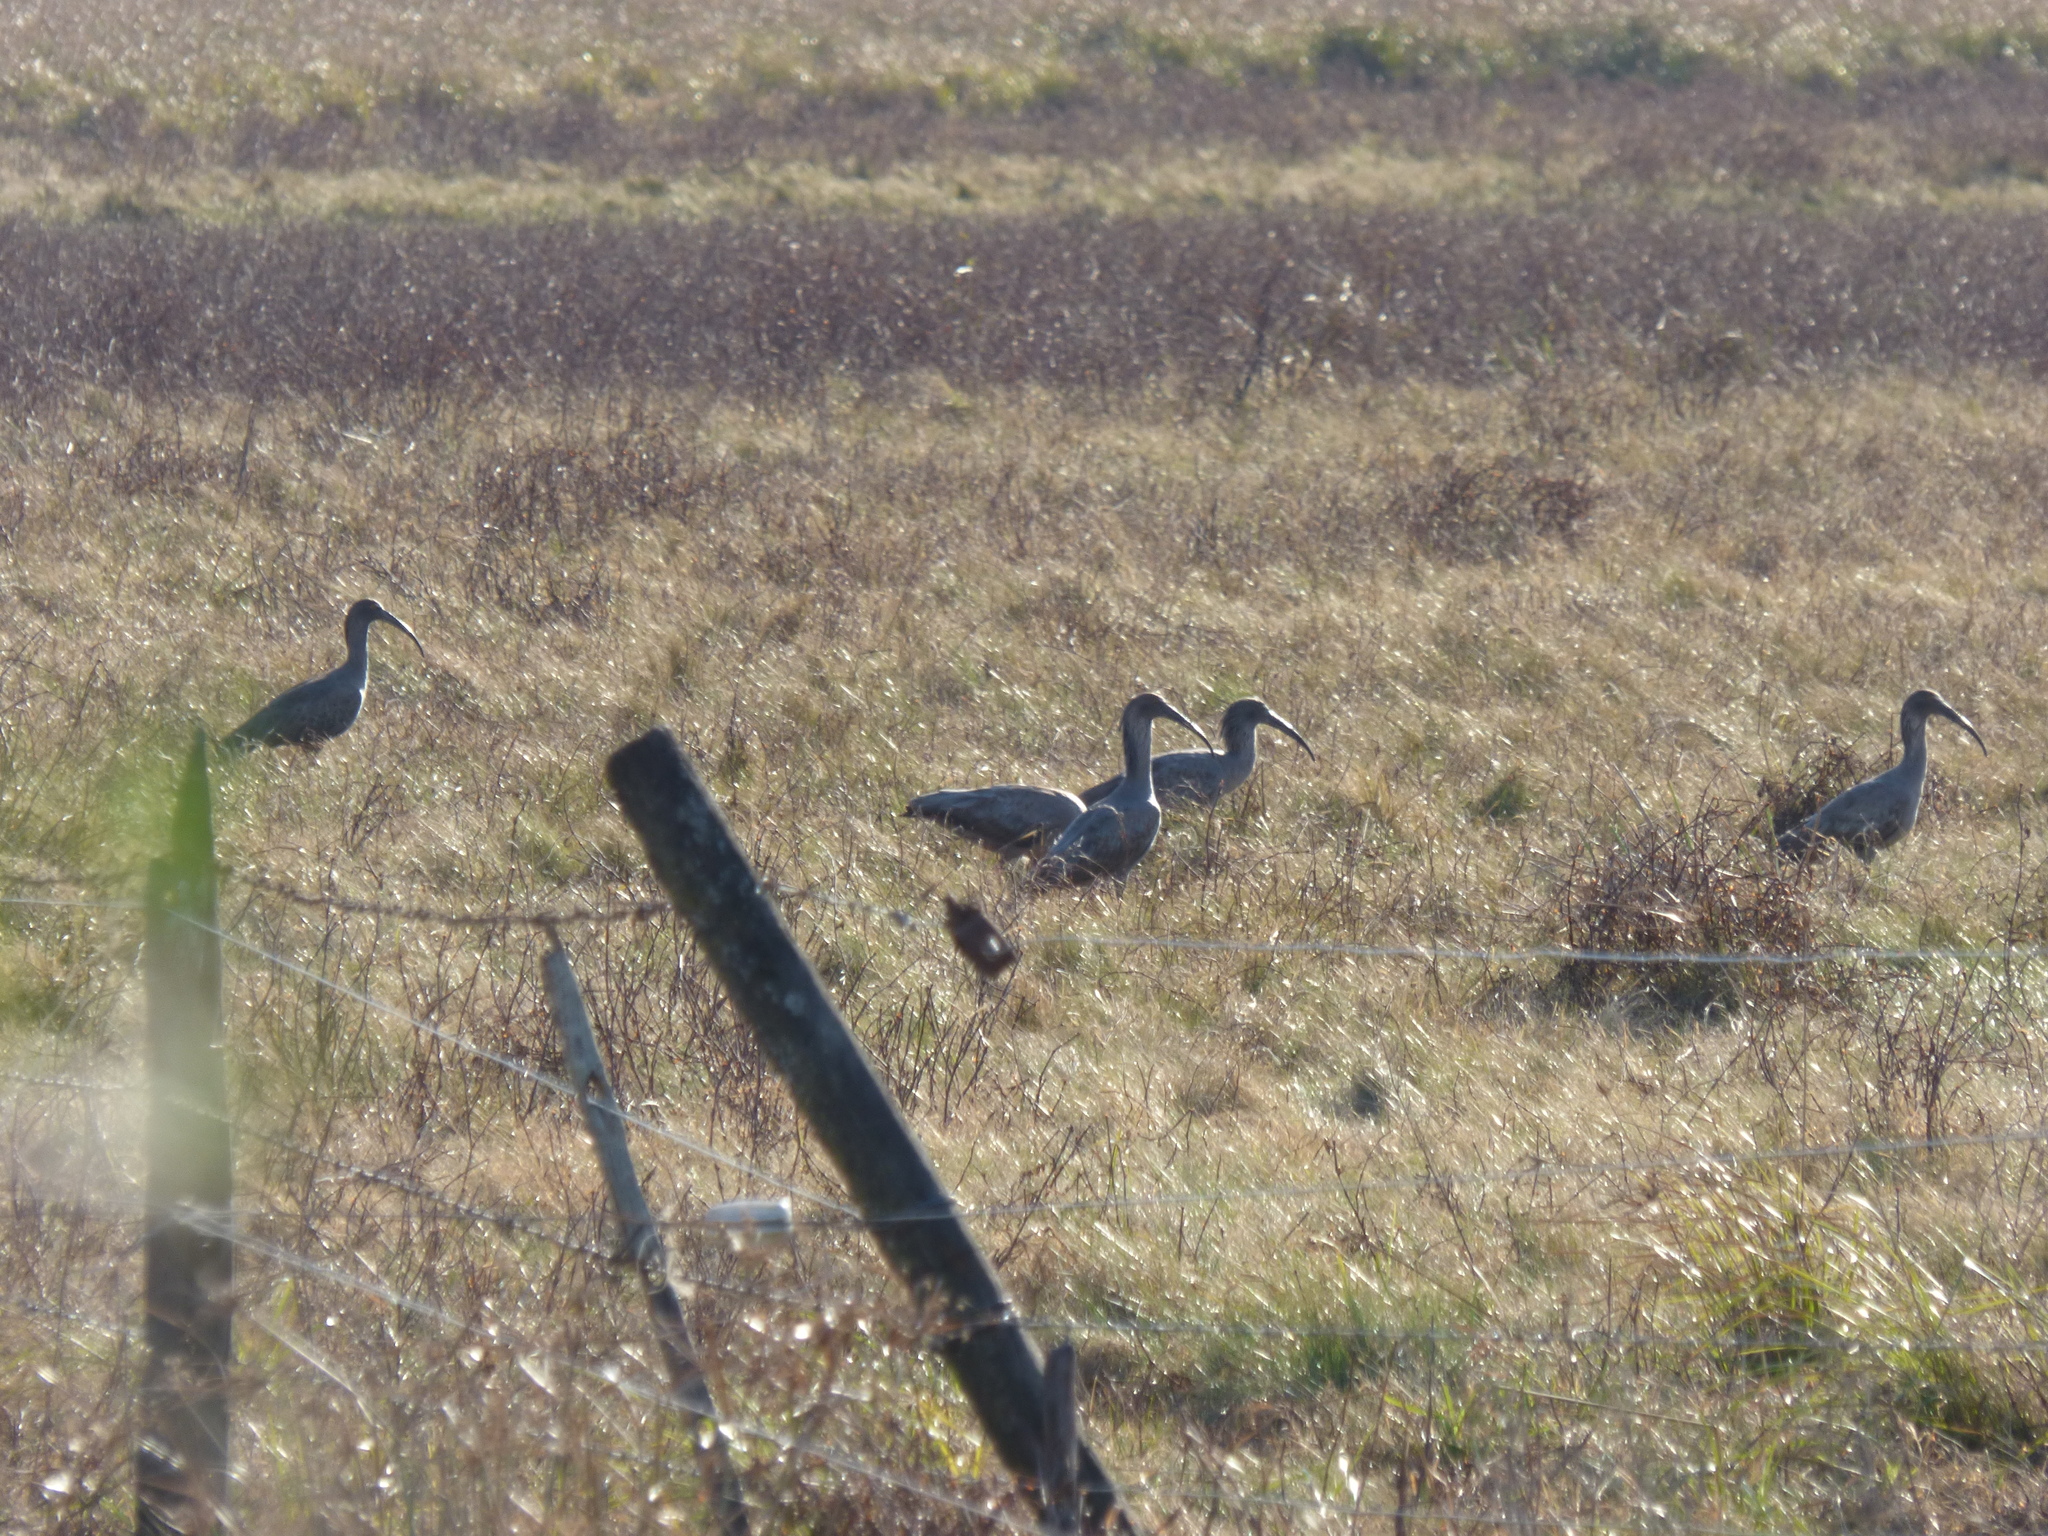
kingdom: Animalia
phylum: Chordata
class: Aves
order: Pelecaniformes
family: Threskiornithidae
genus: Theristicus
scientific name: Theristicus caerulescens
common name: Plumbeous ibis
